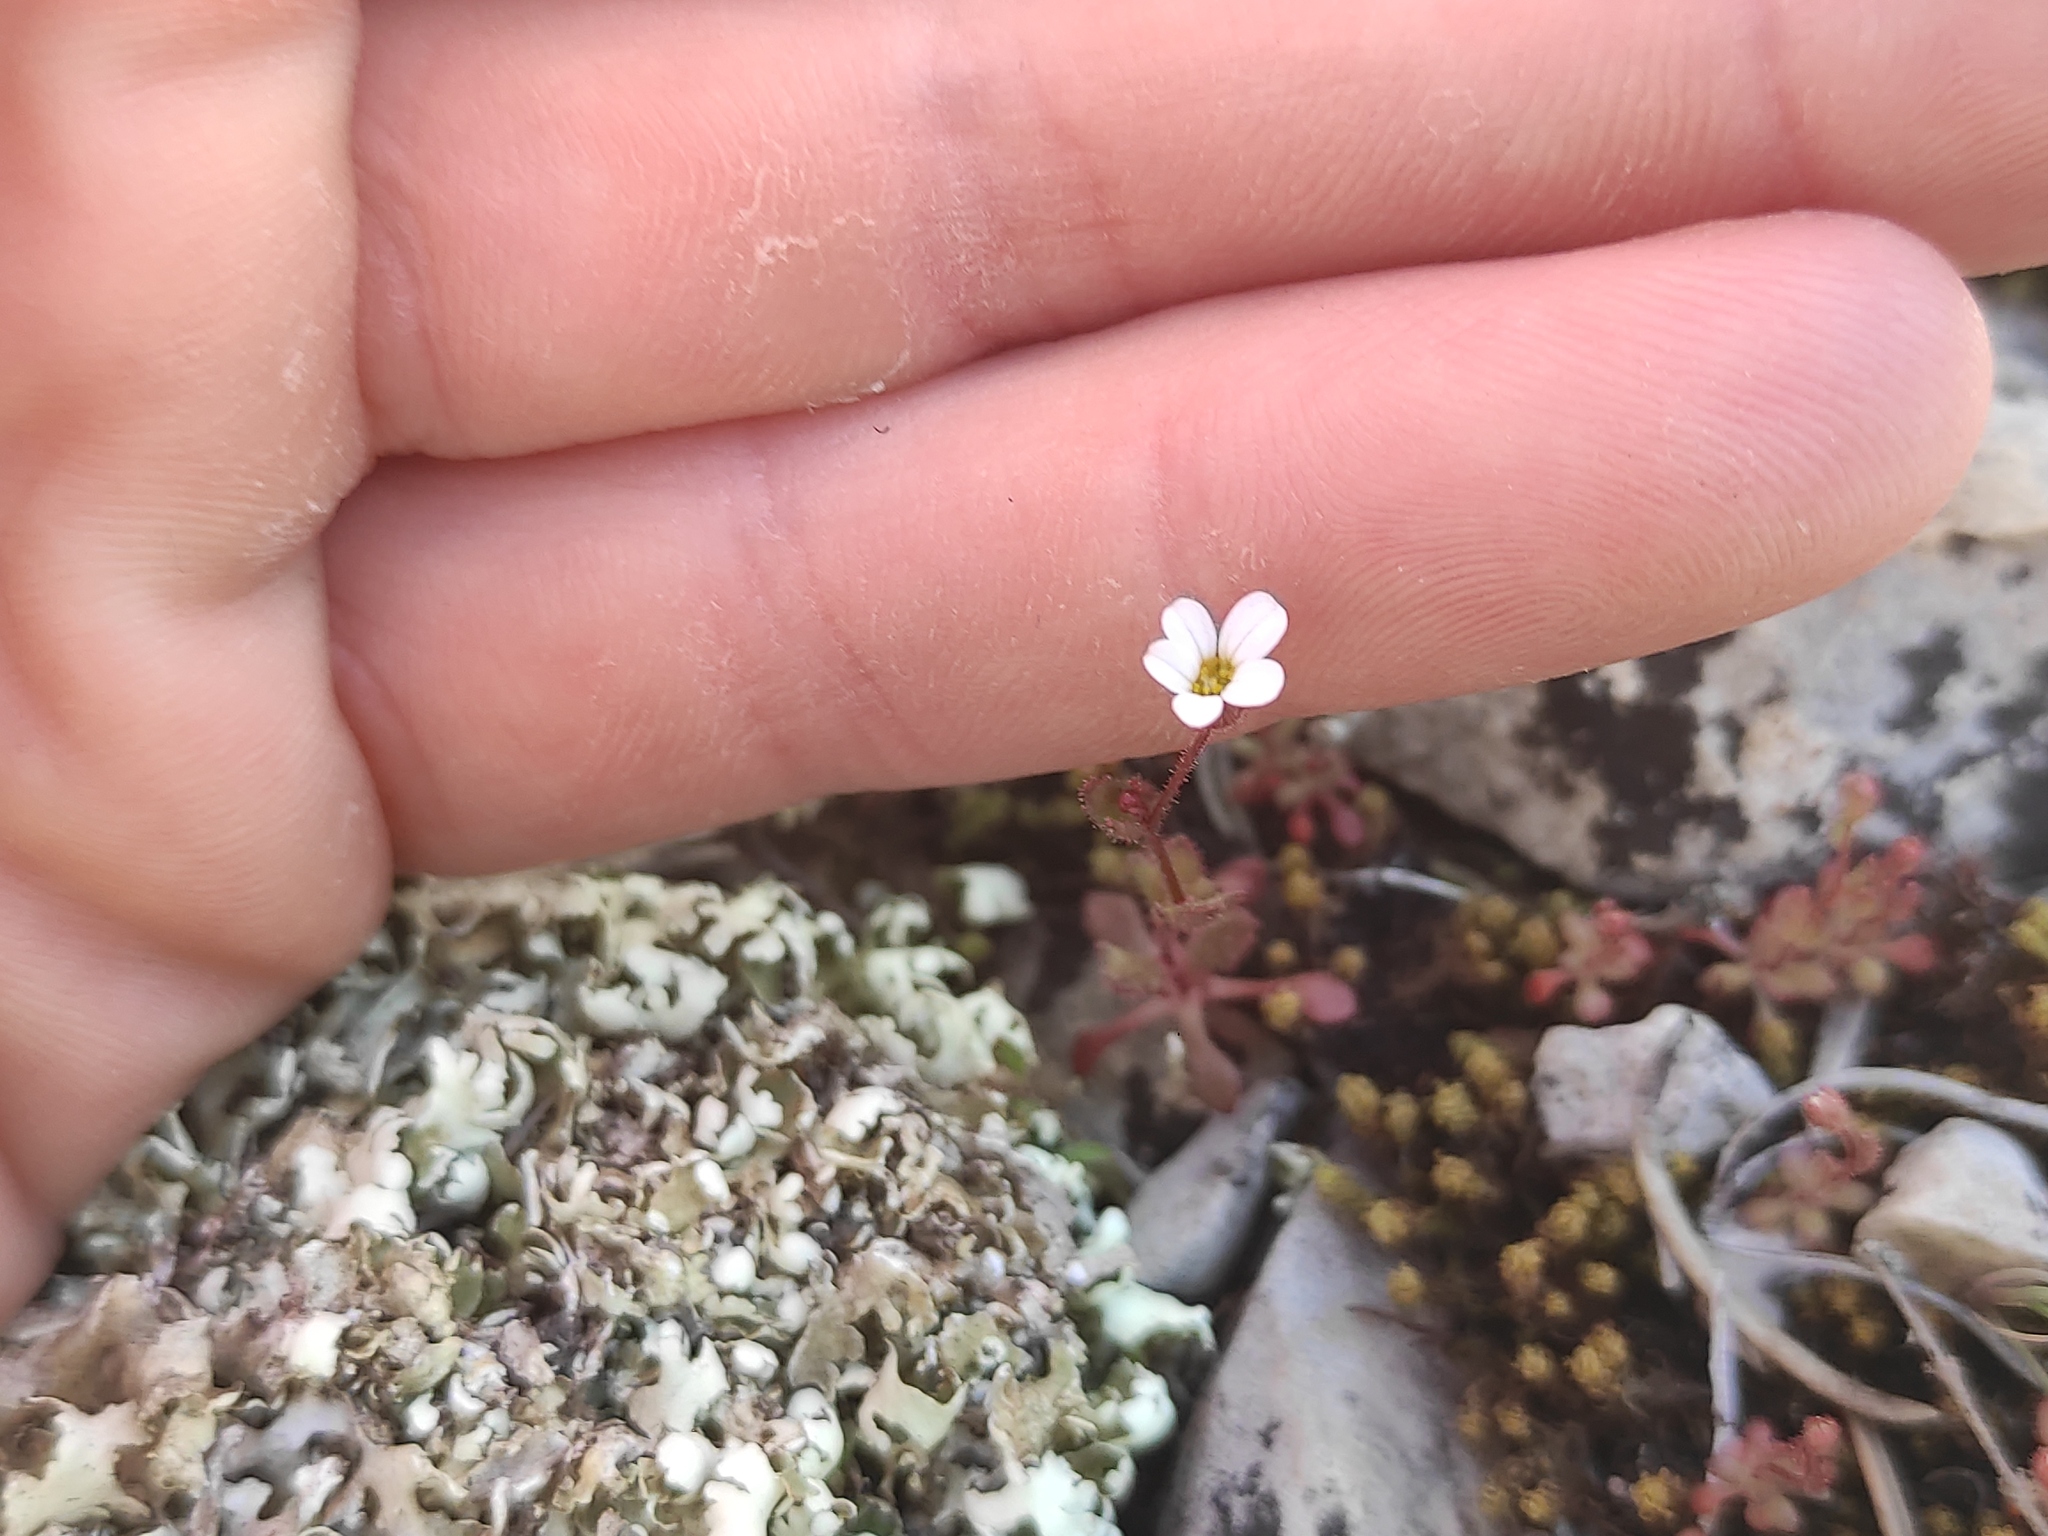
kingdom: Plantae
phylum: Tracheophyta
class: Magnoliopsida
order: Saxifragales
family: Saxifragaceae
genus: Saxifraga
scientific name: Saxifraga tridactylites
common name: Rue-leaved saxifrage
